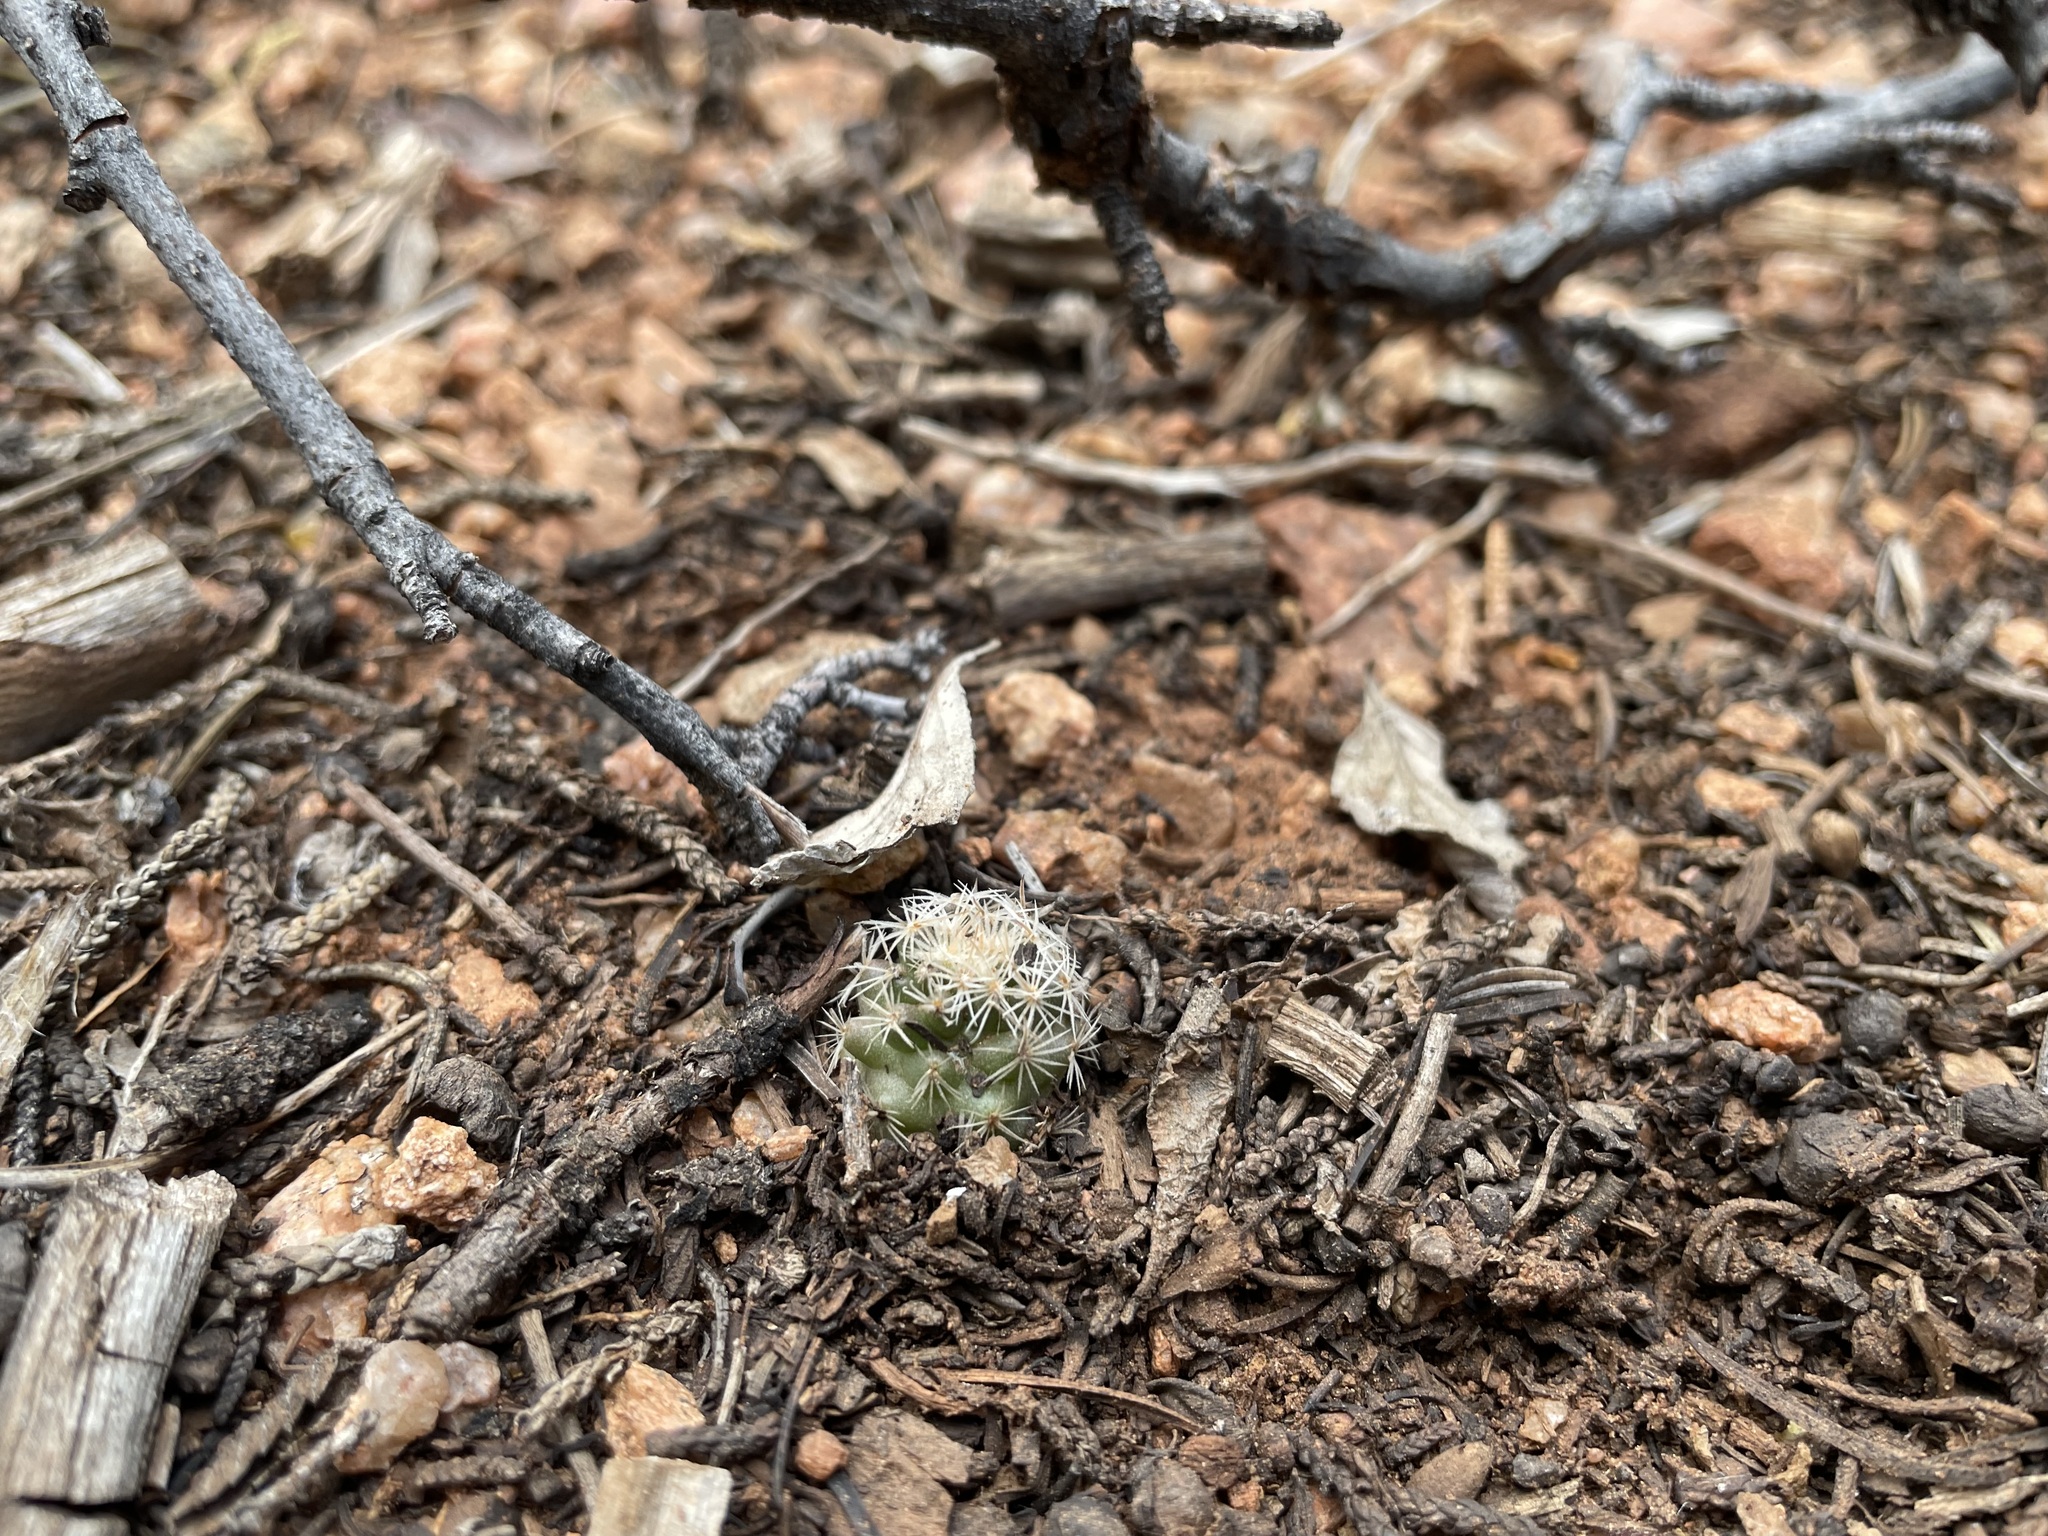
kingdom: Plantae
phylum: Tracheophyta
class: Magnoliopsida
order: Caryophyllales
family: Cactaceae
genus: Pelecyphora
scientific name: Pelecyphora vivipara
